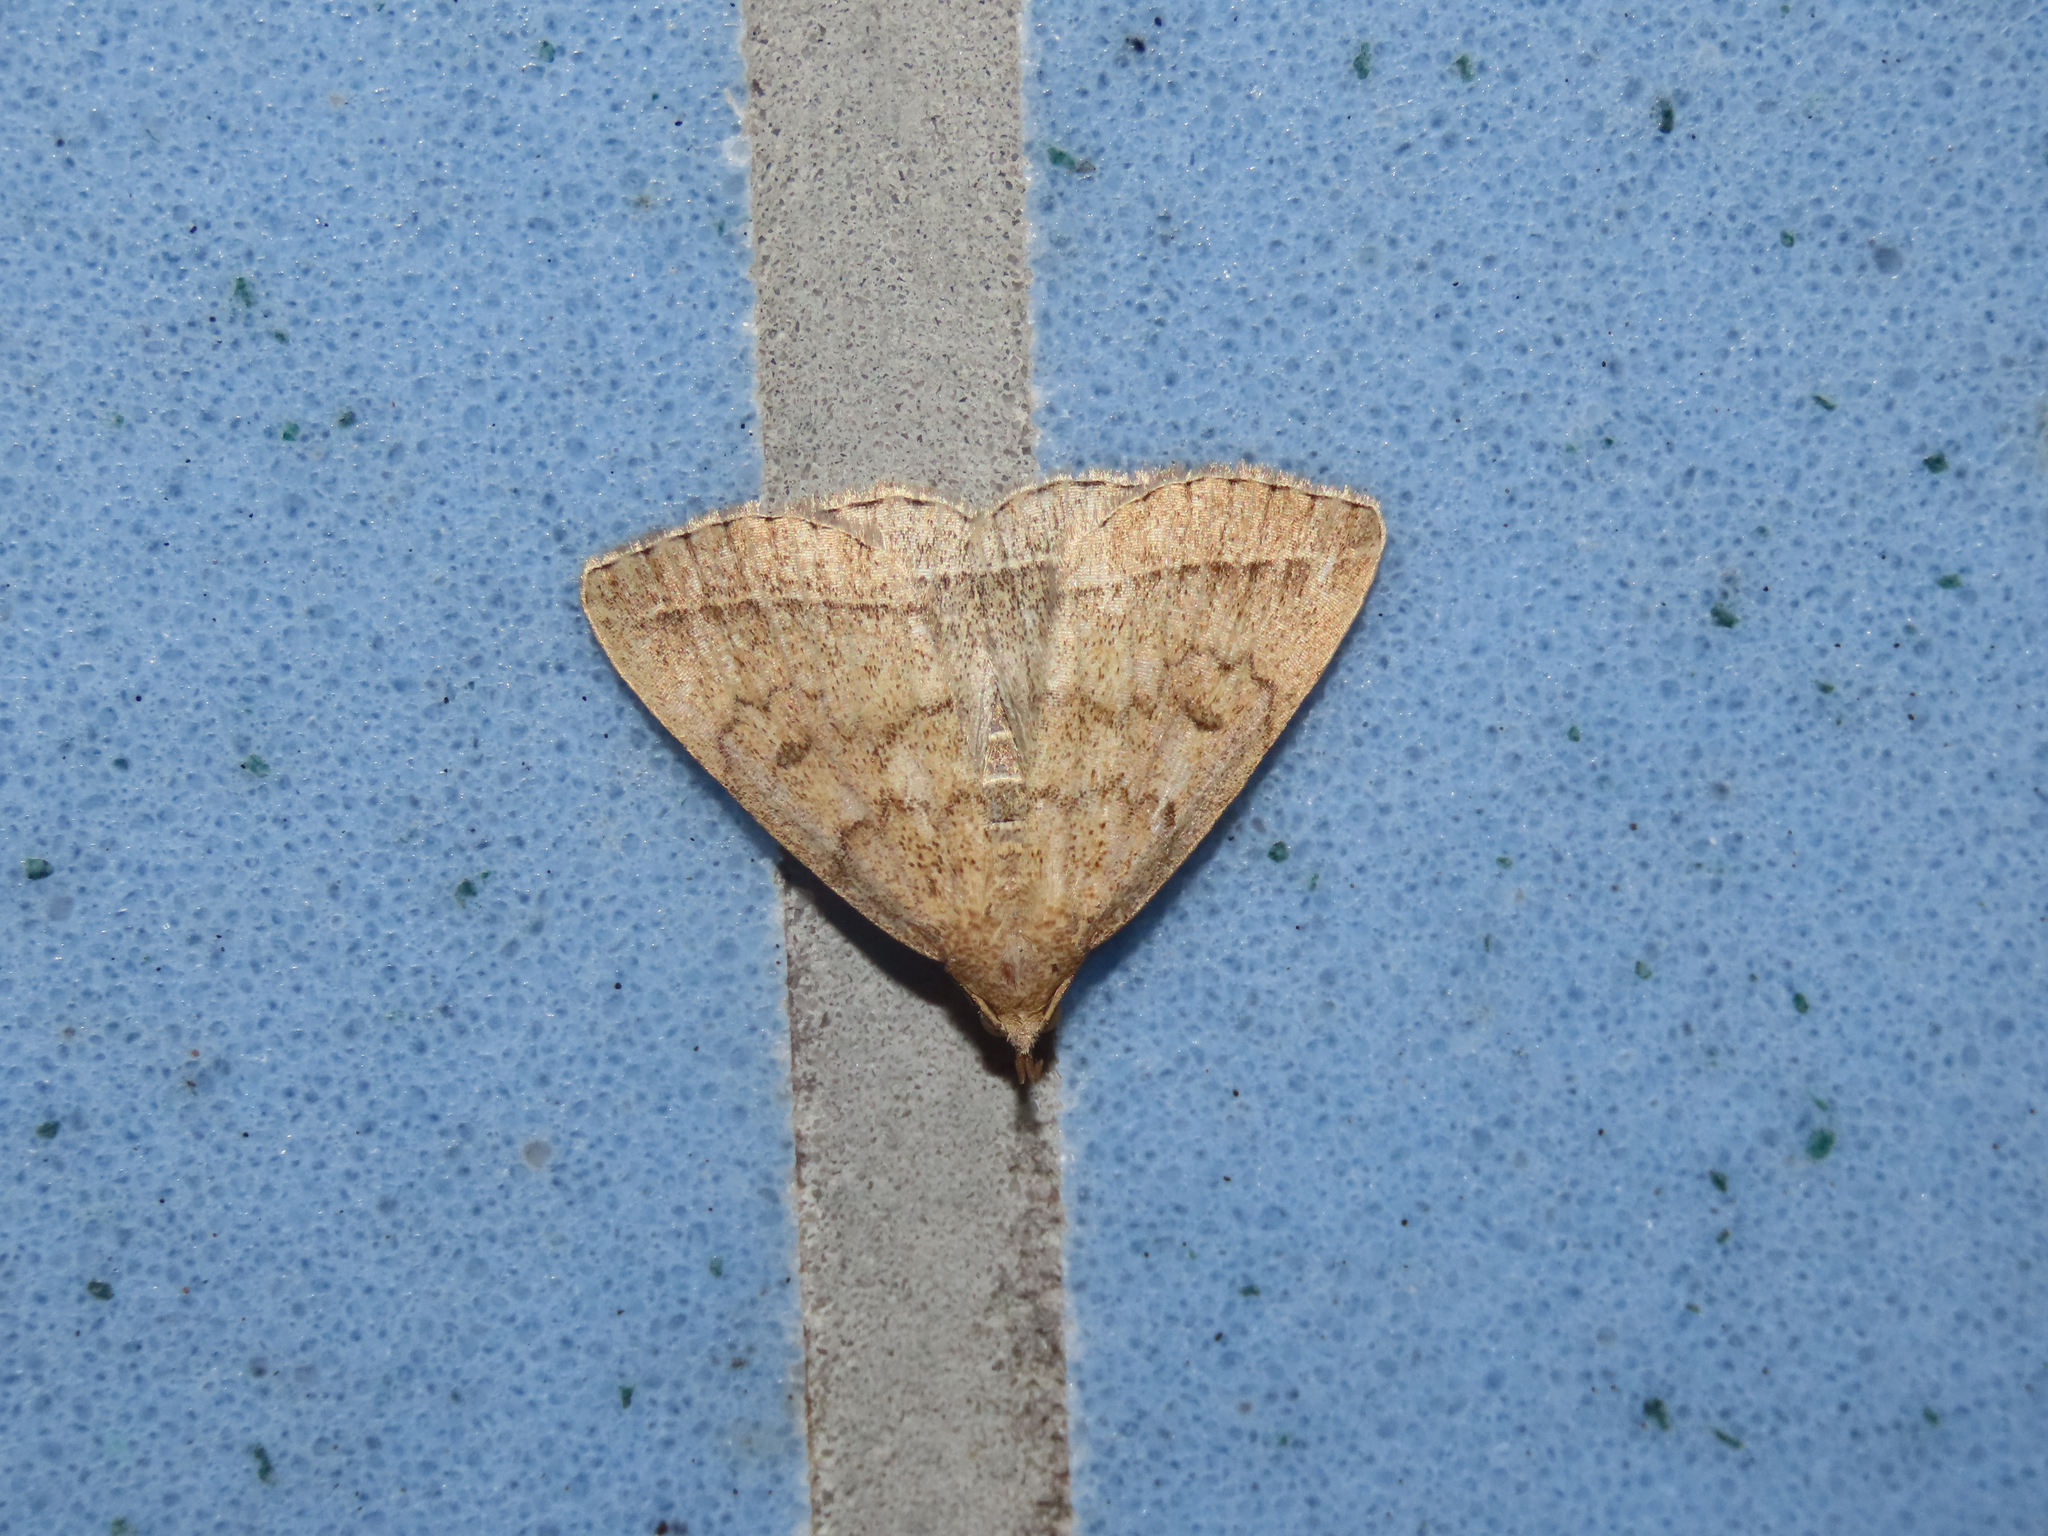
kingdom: Animalia
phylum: Arthropoda
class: Insecta
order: Lepidoptera
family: Erebidae
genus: Zanclognatha
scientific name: Zanclognatha jacchusalis
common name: Yellowish zanclognatha
